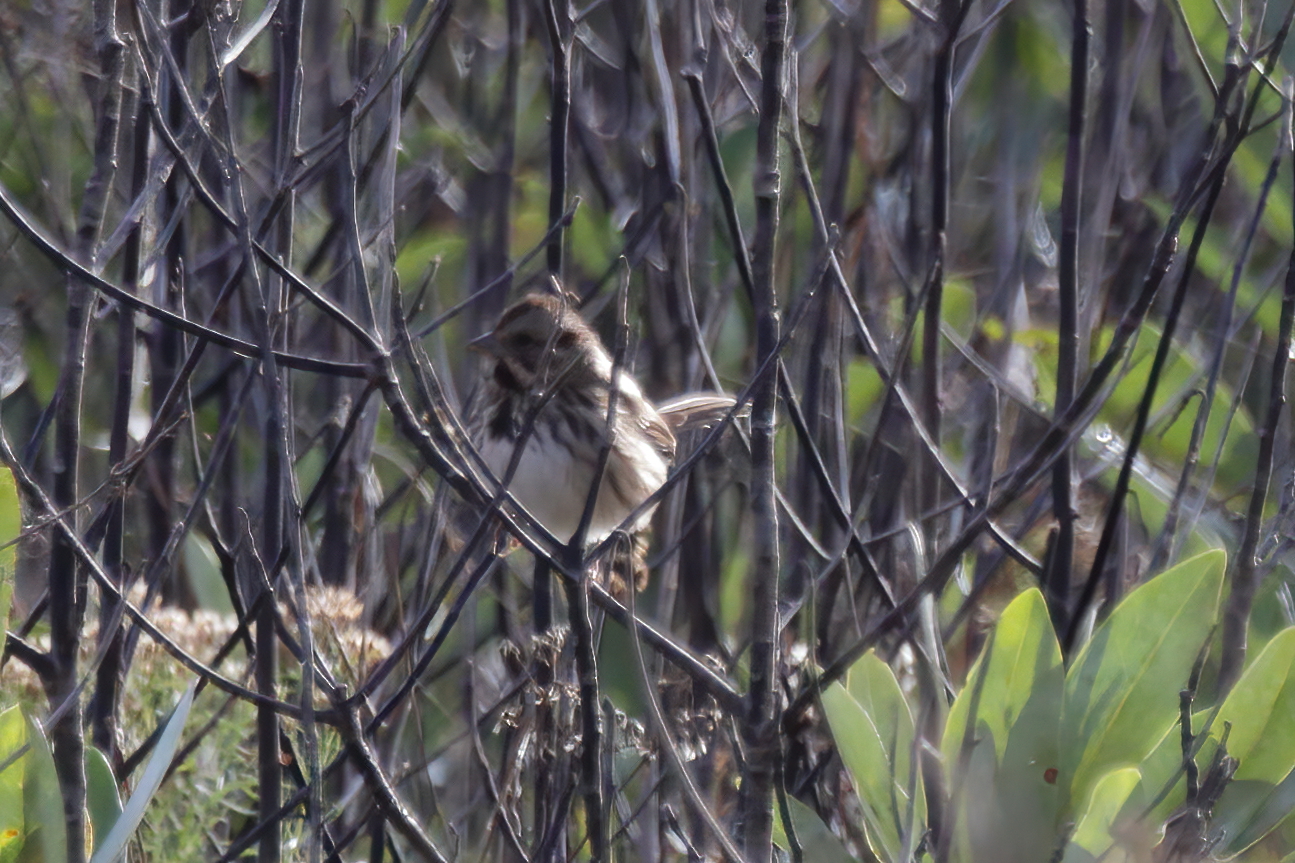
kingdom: Animalia
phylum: Chordata
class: Aves
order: Passeriformes
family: Passerellidae
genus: Melospiza
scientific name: Melospiza melodia
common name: Song sparrow
